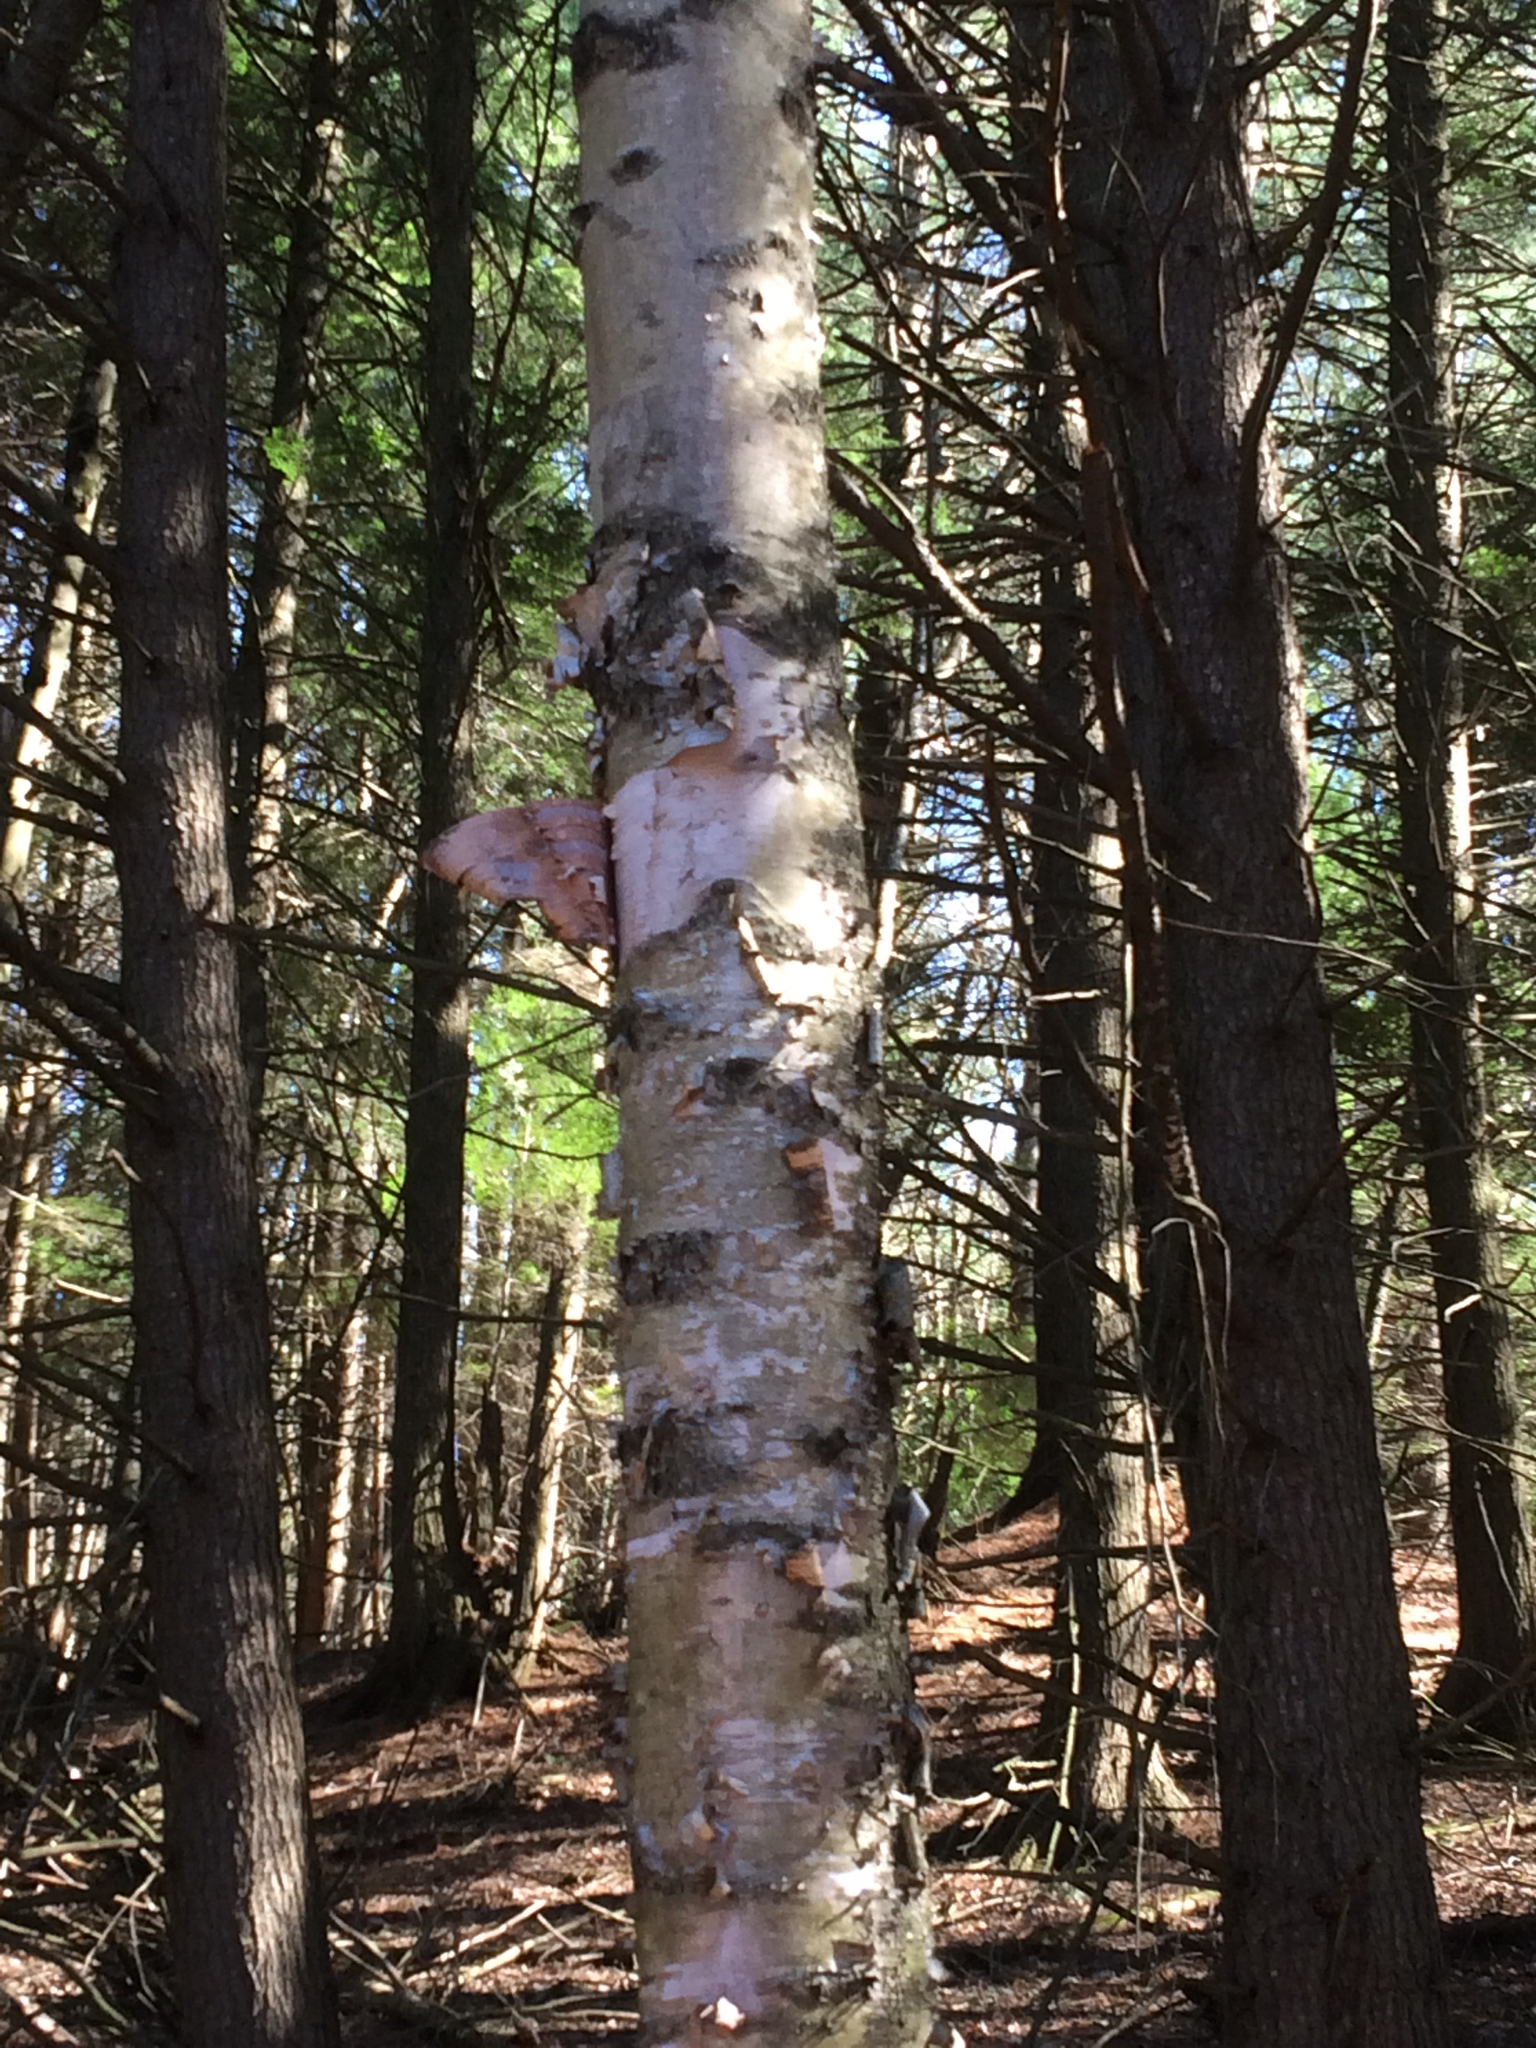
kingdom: Plantae
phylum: Tracheophyta
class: Magnoliopsida
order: Fagales
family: Betulaceae
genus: Betula
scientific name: Betula papyrifera
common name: Paper birch
